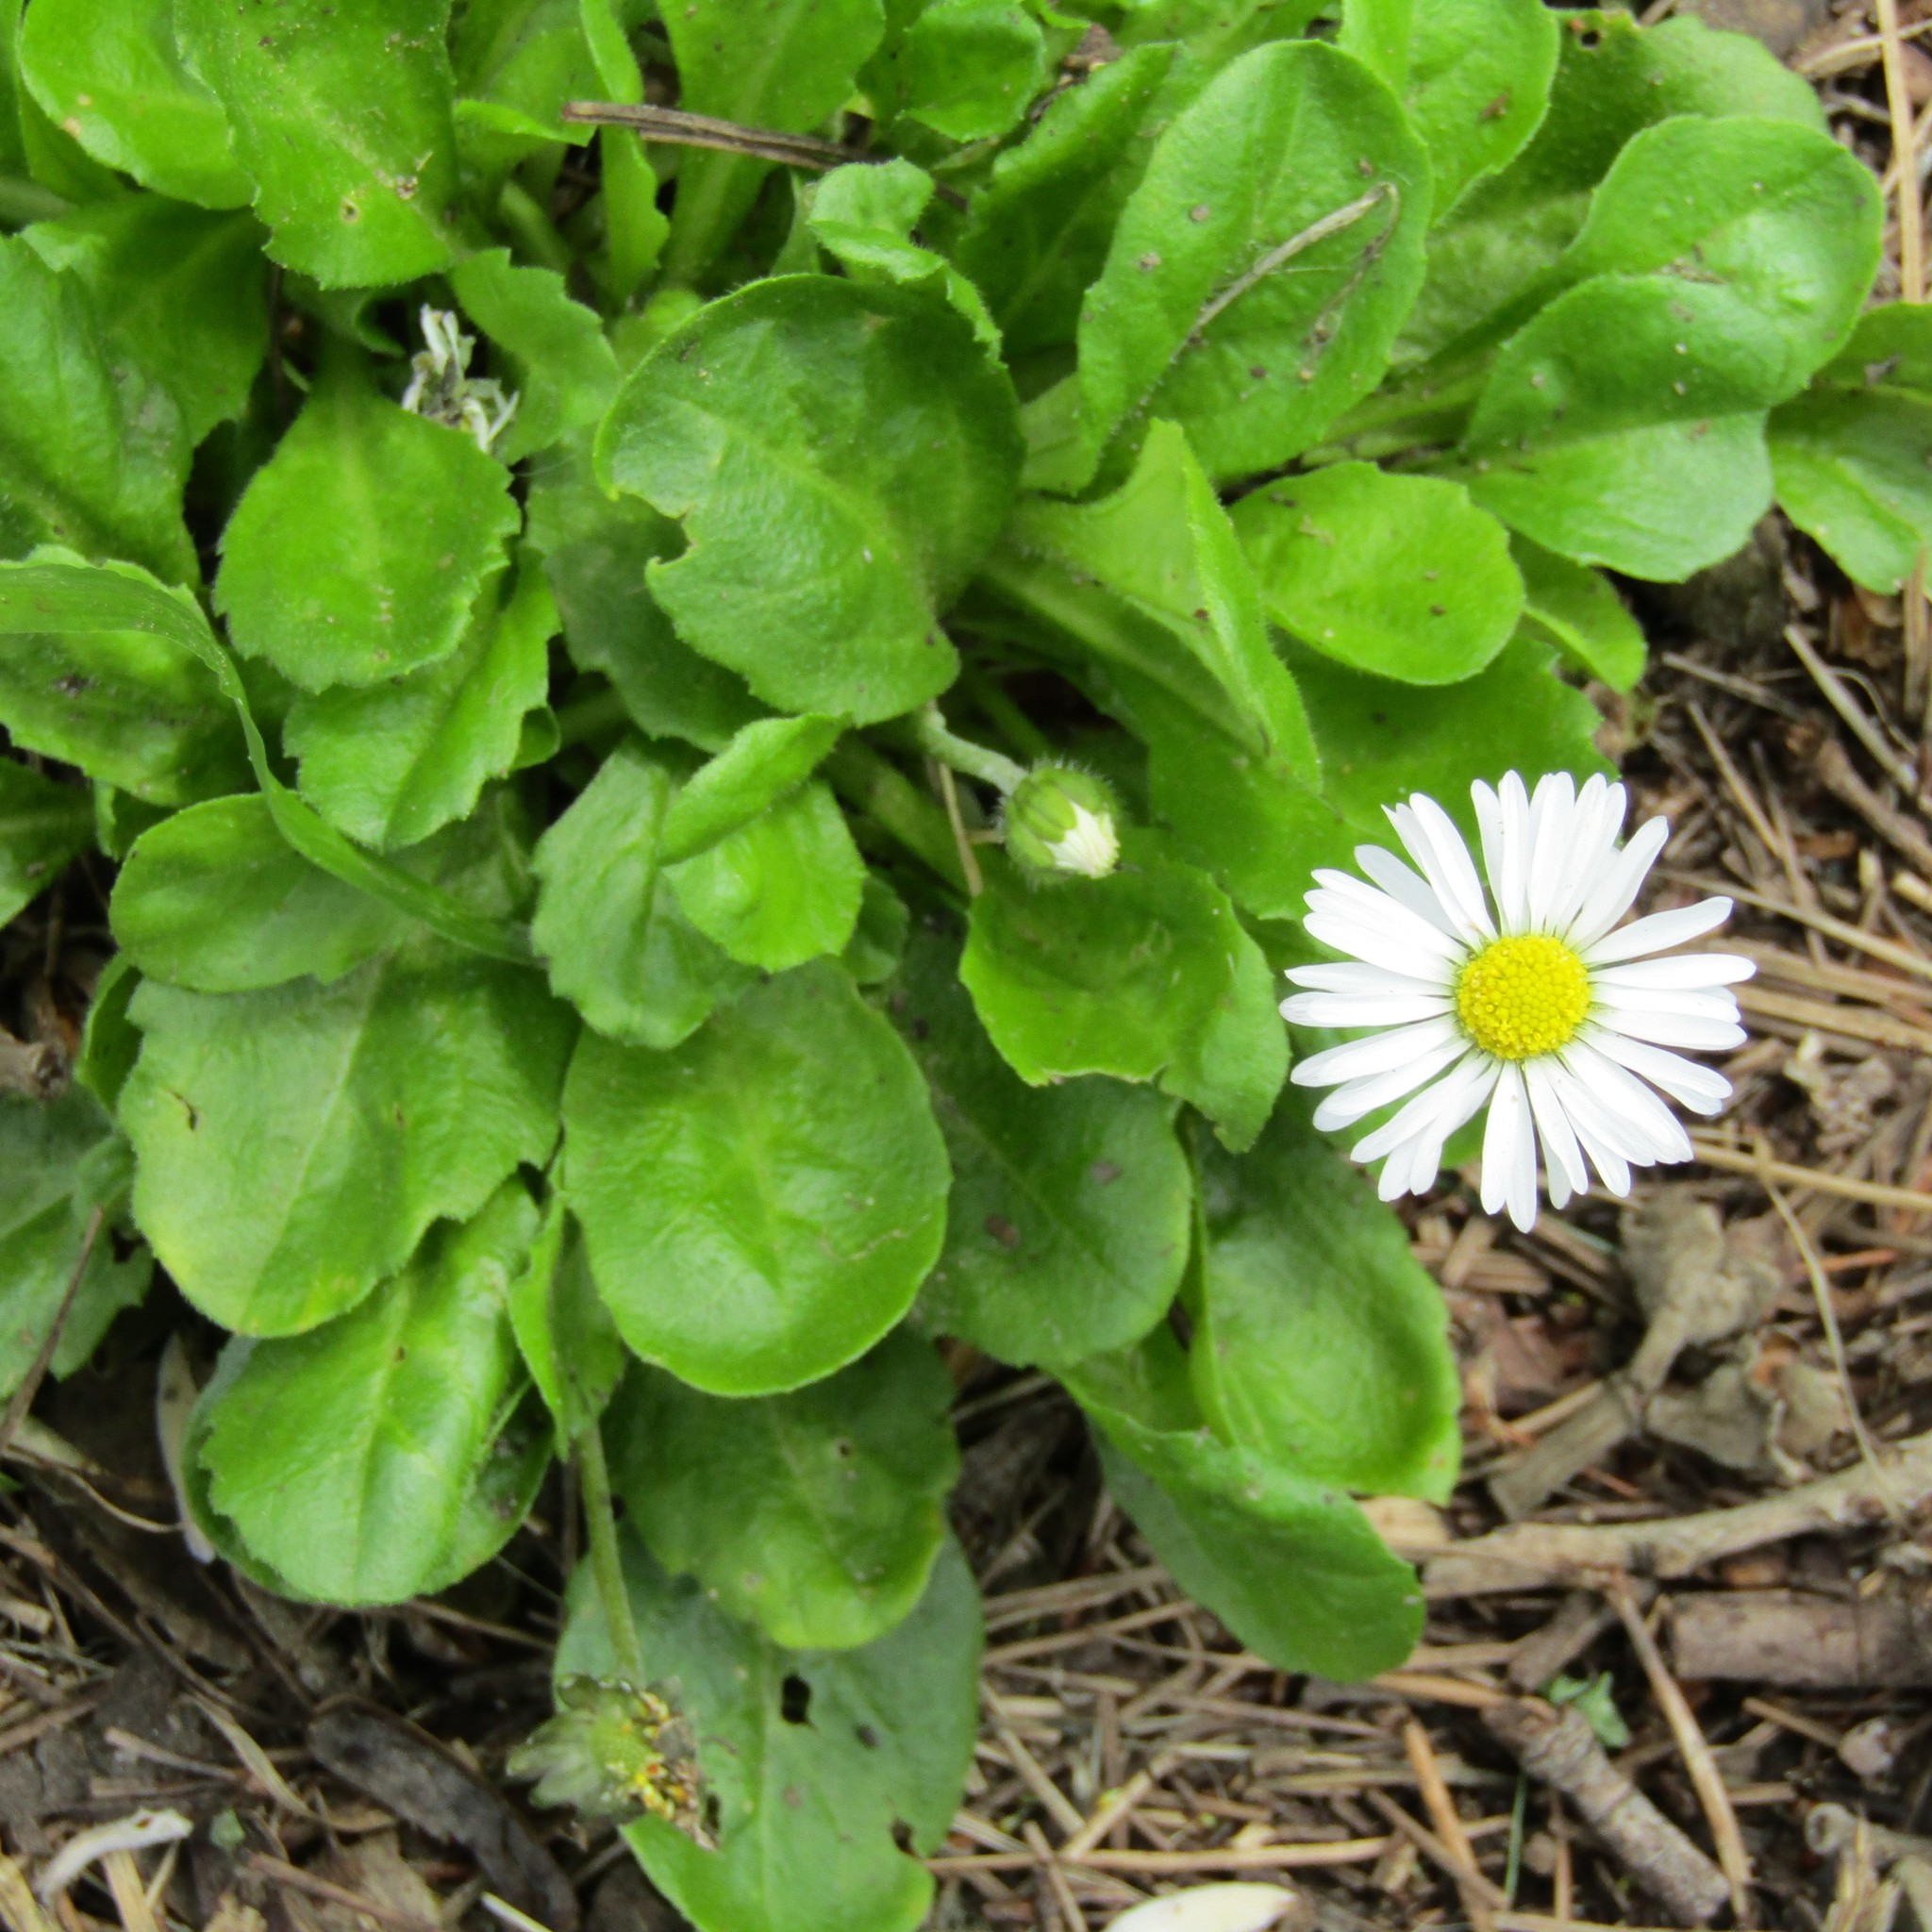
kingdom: Plantae
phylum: Tracheophyta
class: Magnoliopsida
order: Asterales
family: Asteraceae
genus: Bellis
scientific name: Bellis perennis
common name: Lawndaisy
